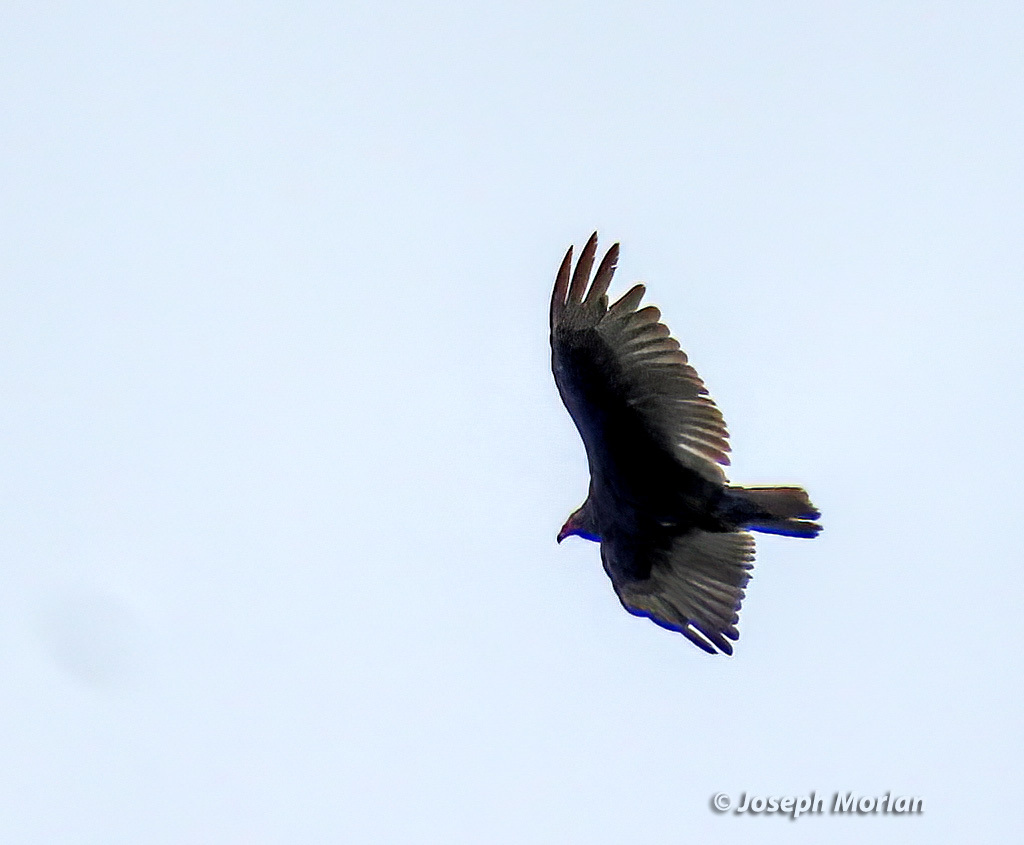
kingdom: Animalia
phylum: Chordata
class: Aves
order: Accipitriformes
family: Cathartidae
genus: Cathartes
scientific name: Cathartes aura
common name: Turkey vulture
